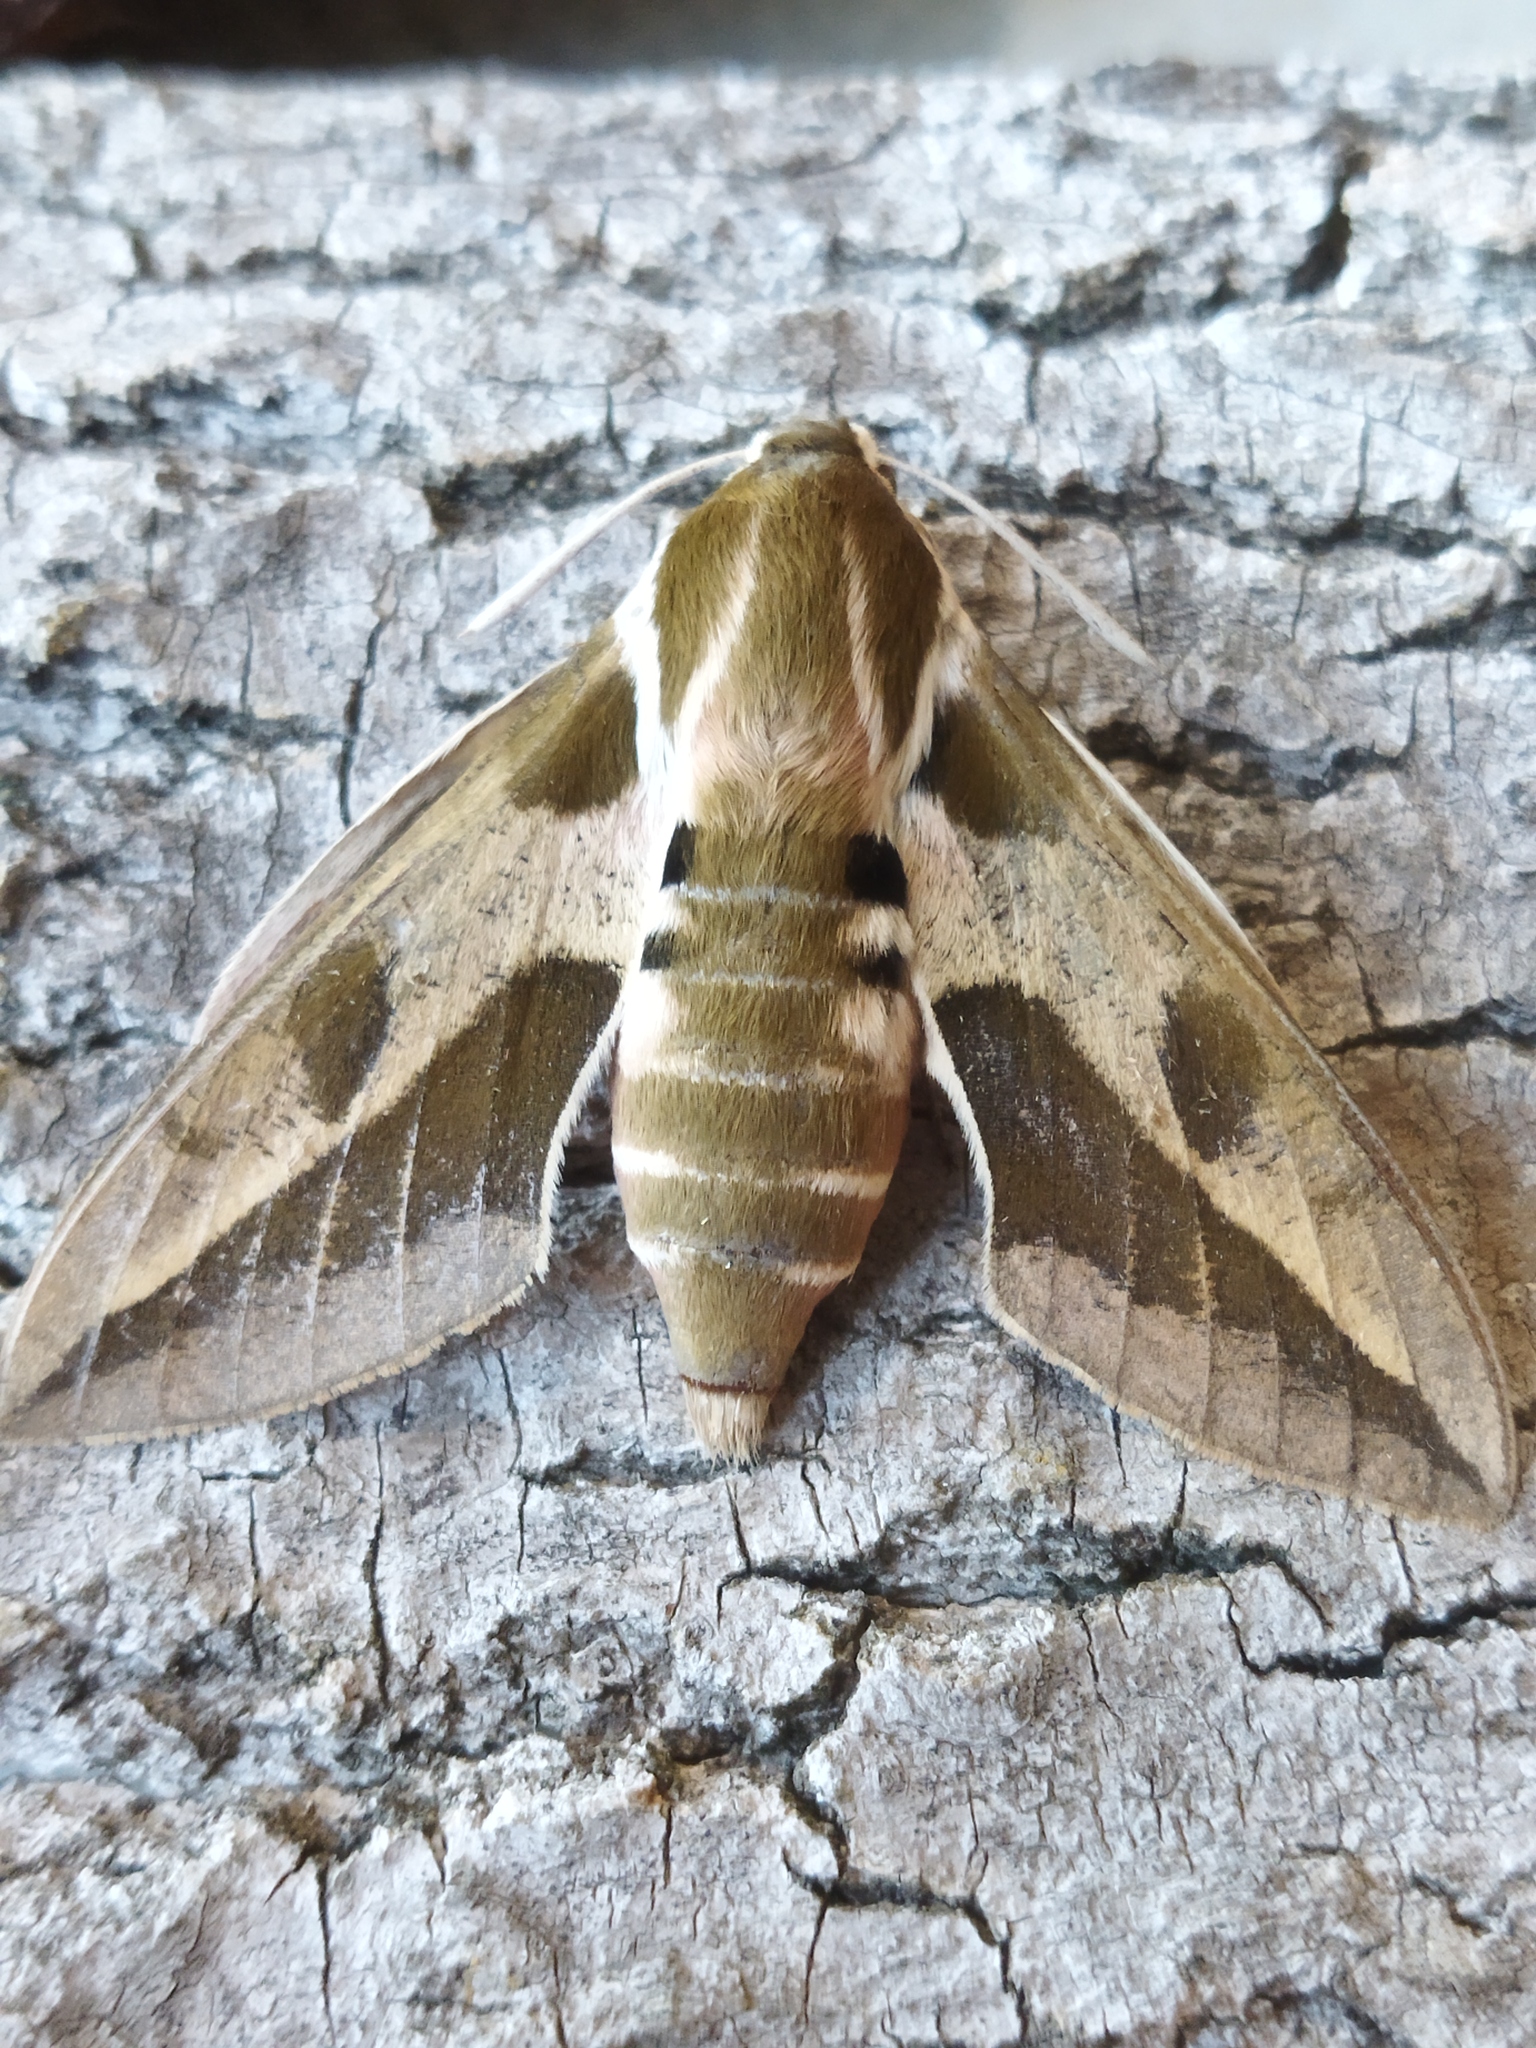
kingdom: Animalia
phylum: Arthropoda
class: Insecta
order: Lepidoptera
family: Sphingidae
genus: Hyles
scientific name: Hyles euphorbiae
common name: Spurge hawk-moth
